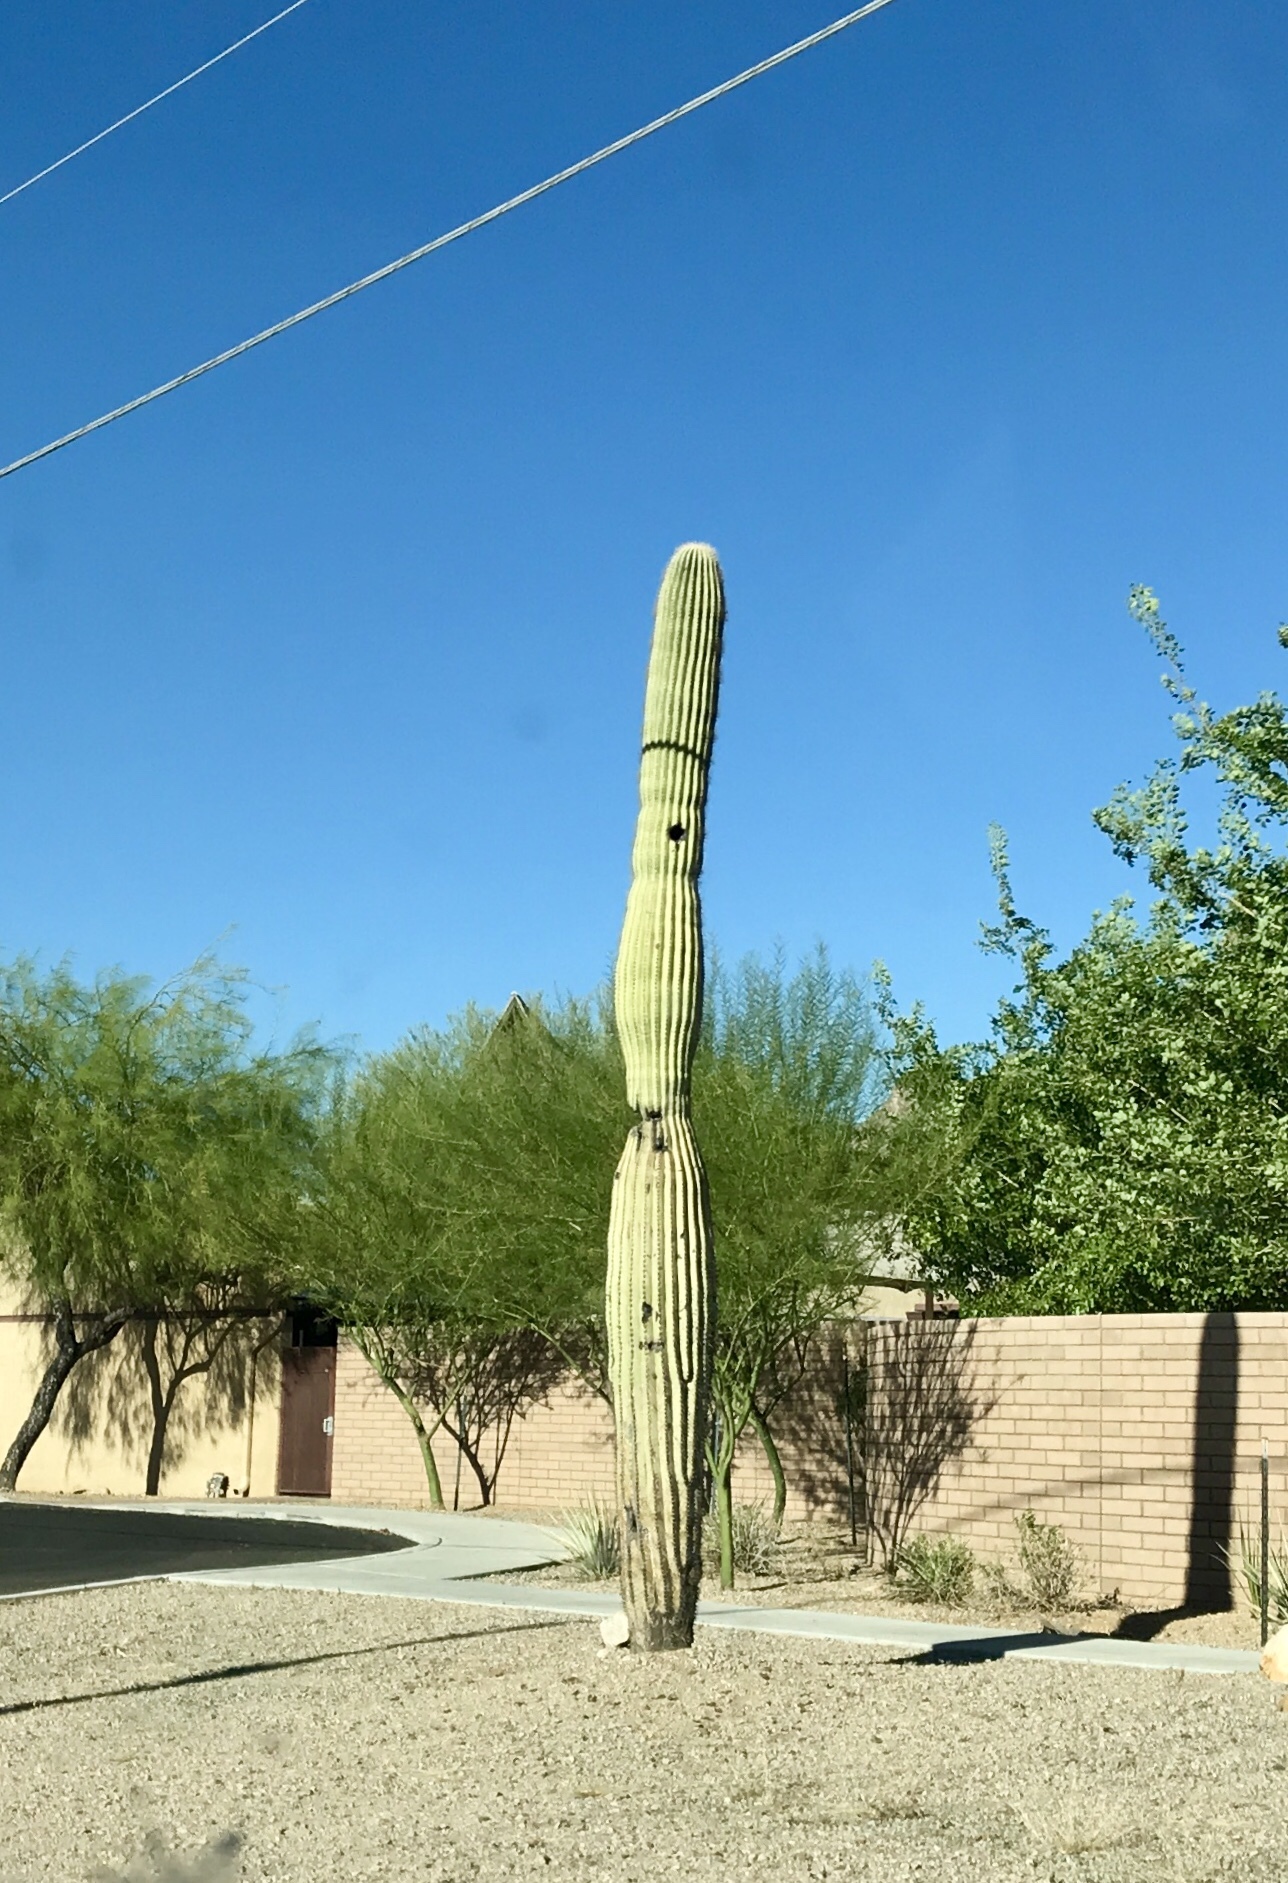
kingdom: Plantae
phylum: Tracheophyta
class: Magnoliopsida
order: Caryophyllales
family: Cactaceae
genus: Carnegiea
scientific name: Carnegiea gigantea
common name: Saguaro
